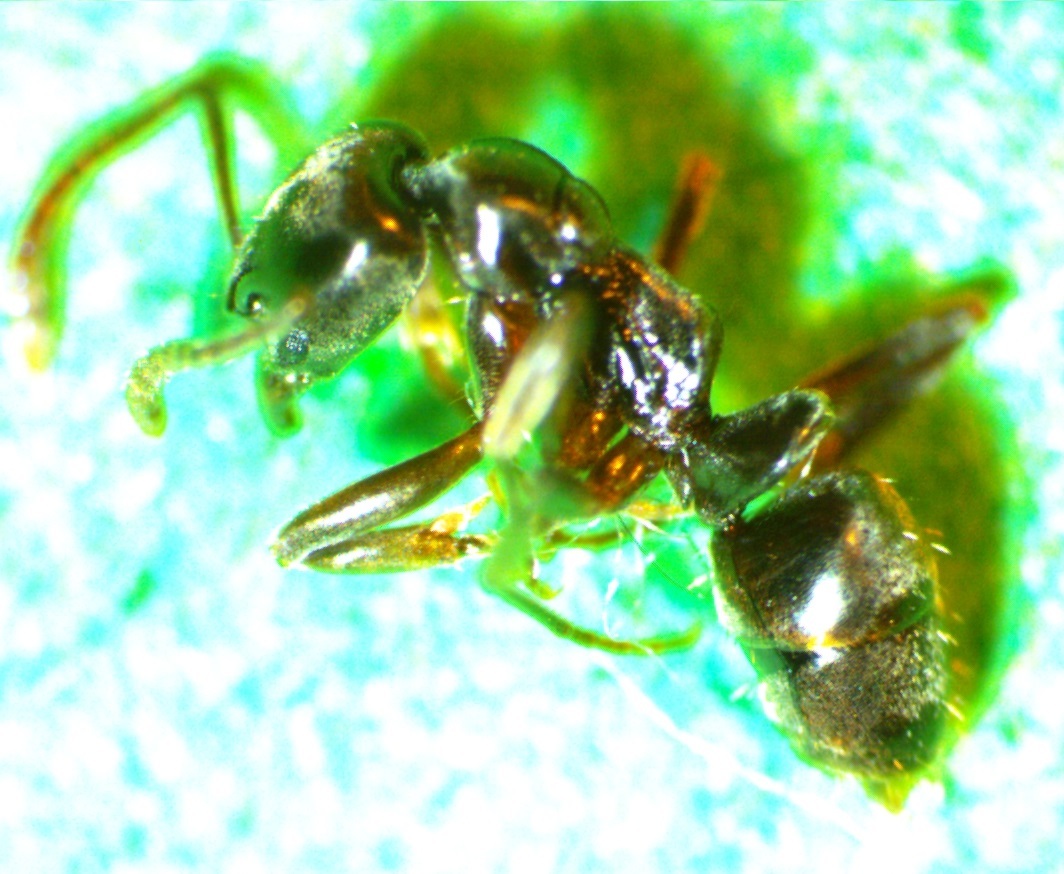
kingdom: Animalia
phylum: Arthropoda
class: Insecta
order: Hymenoptera
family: Formicidae
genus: Pachycondyla
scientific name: Pachycondyla chinensis
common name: Asian needle ant
